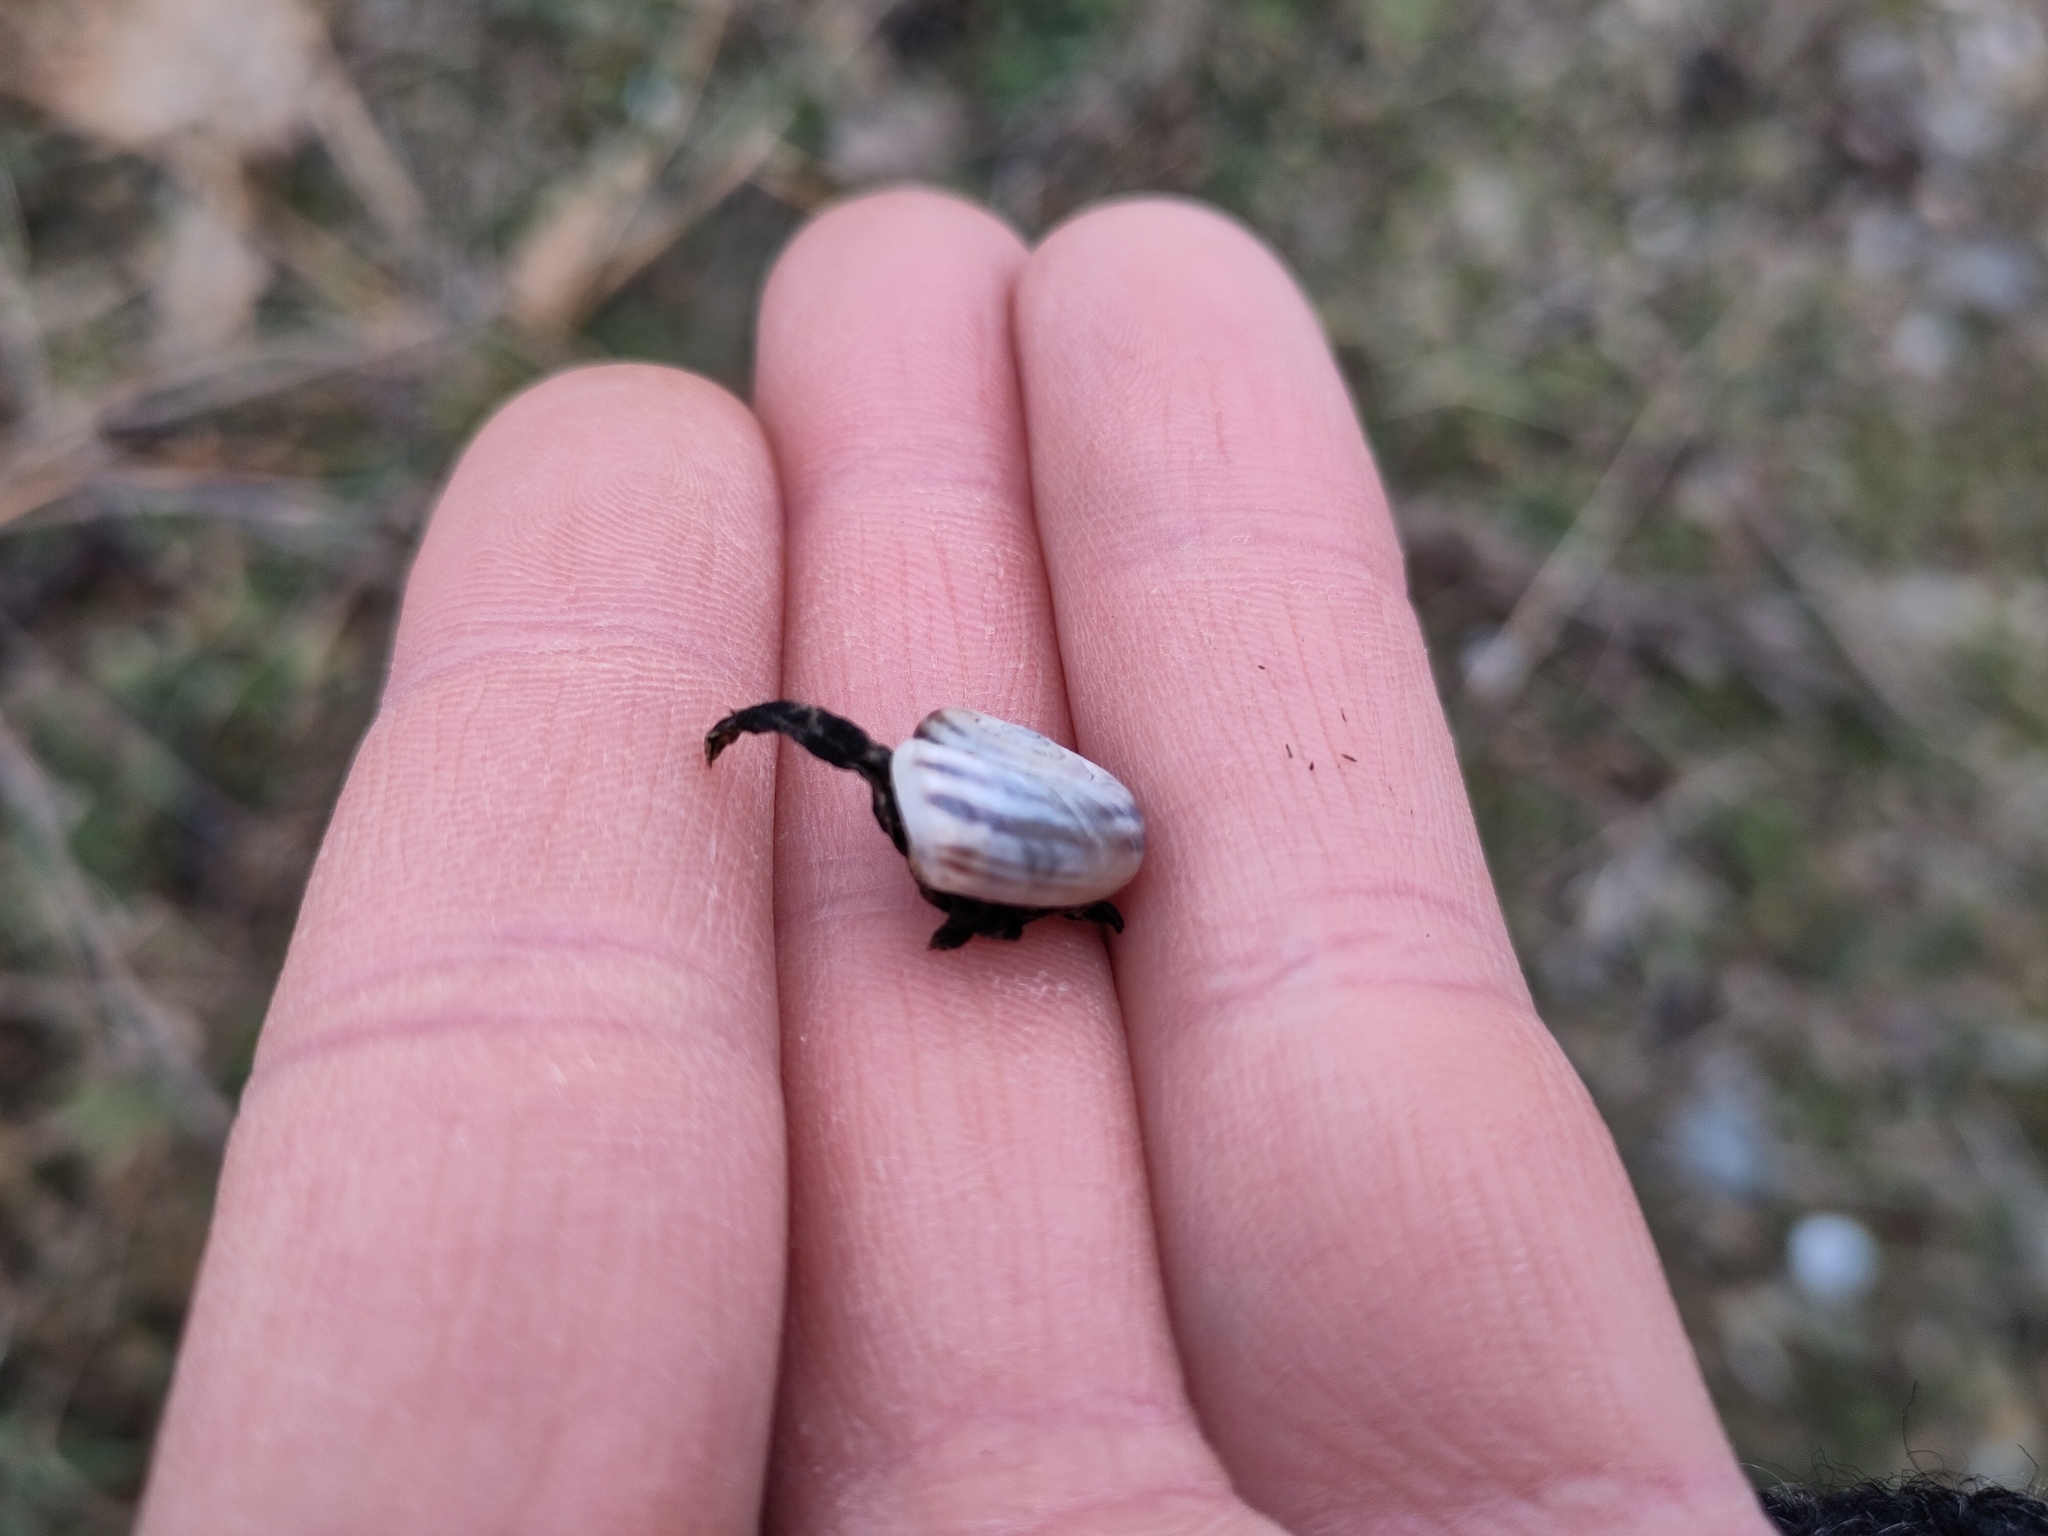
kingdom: Animalia
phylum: Mollusca
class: Gastropoda
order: Stylommatophora
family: Geomitridae
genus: Xerolenta
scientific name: Xerolenta obvia
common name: White heath snail
